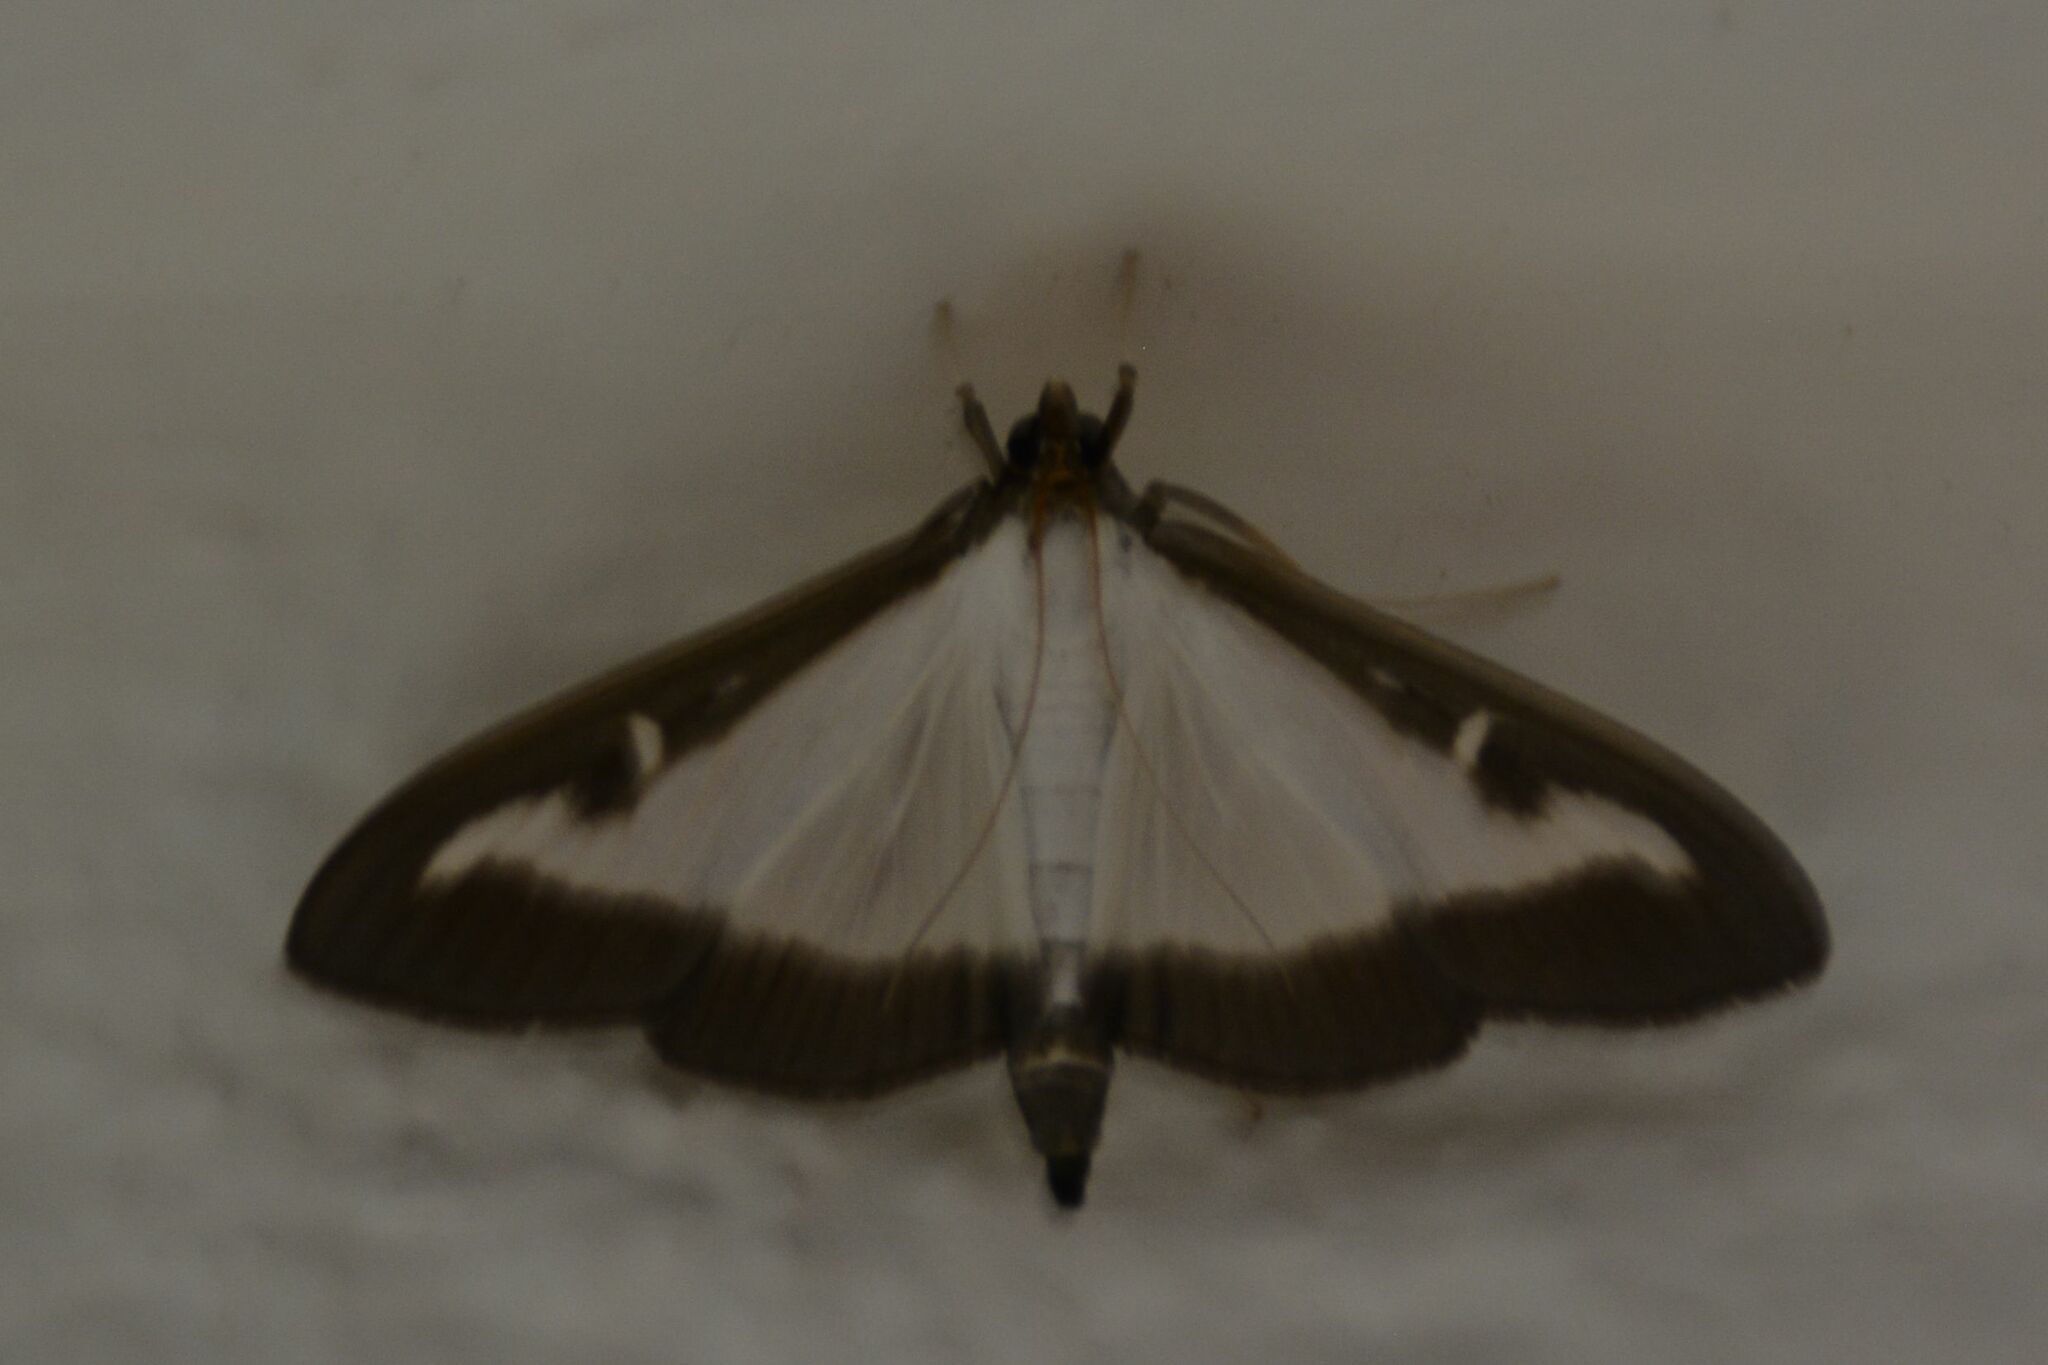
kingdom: Animalia
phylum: Arthropoda
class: Insecta
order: Lepidoptera
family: Crambidae
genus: Cydalima
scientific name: Cydalima perspectalis
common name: Box tree moth
